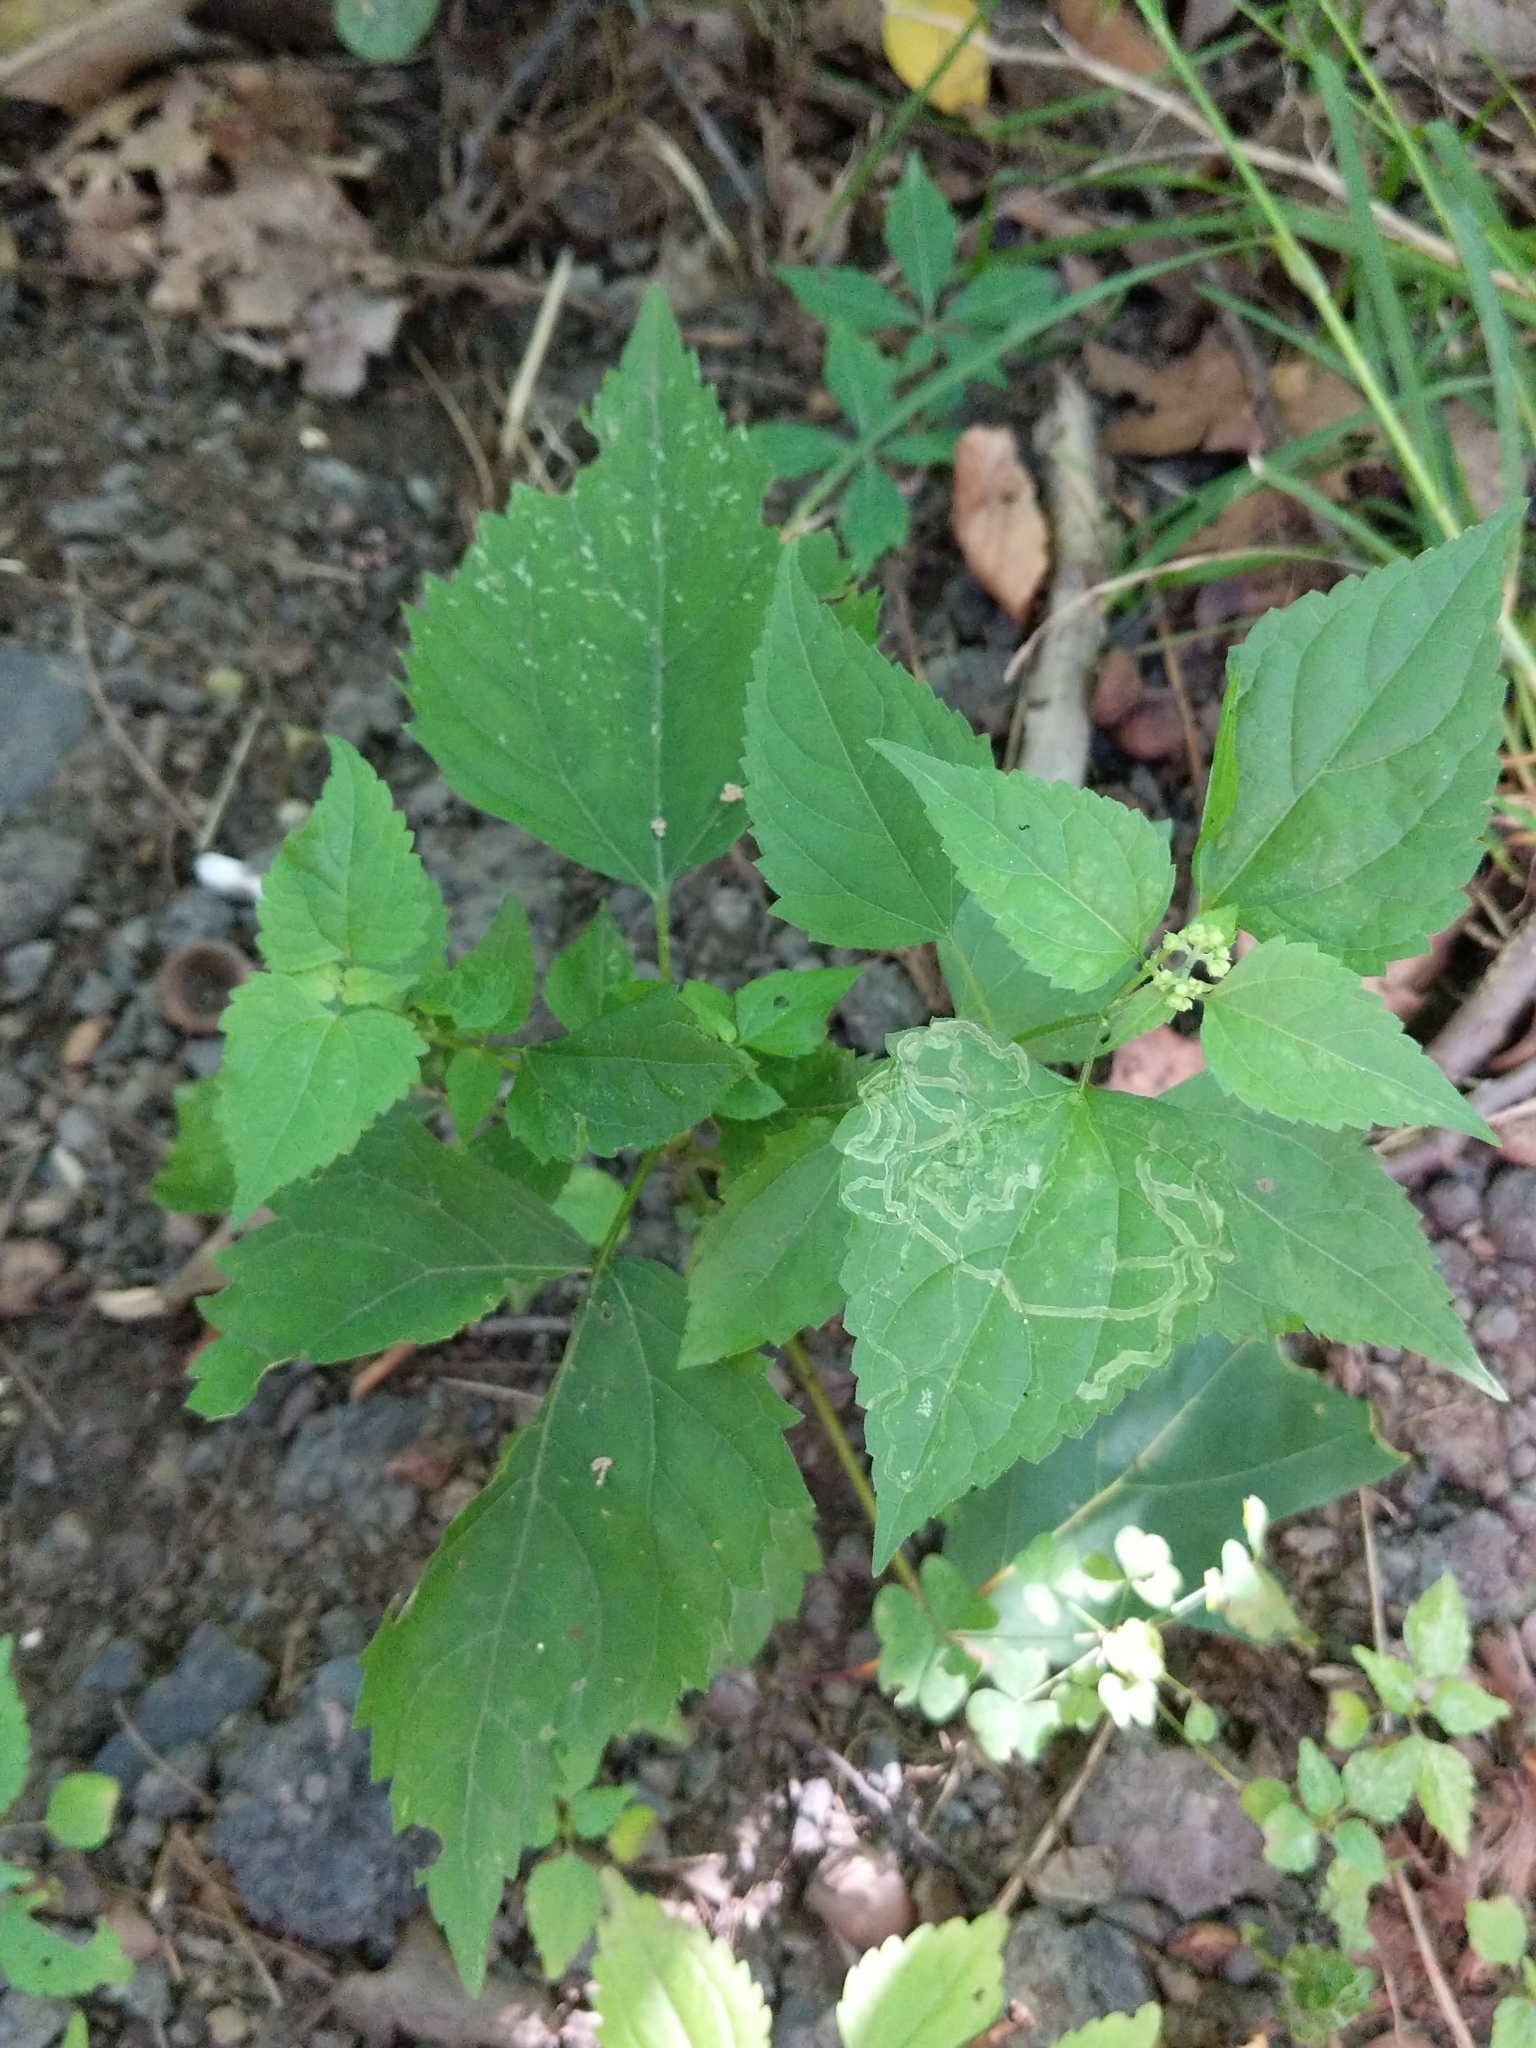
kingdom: Plantae
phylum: Tracheophyta
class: Magnoliopsida
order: Asterales
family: Asteraceae
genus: Ageratina
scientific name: Ageratina altissima
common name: White snakeroot
